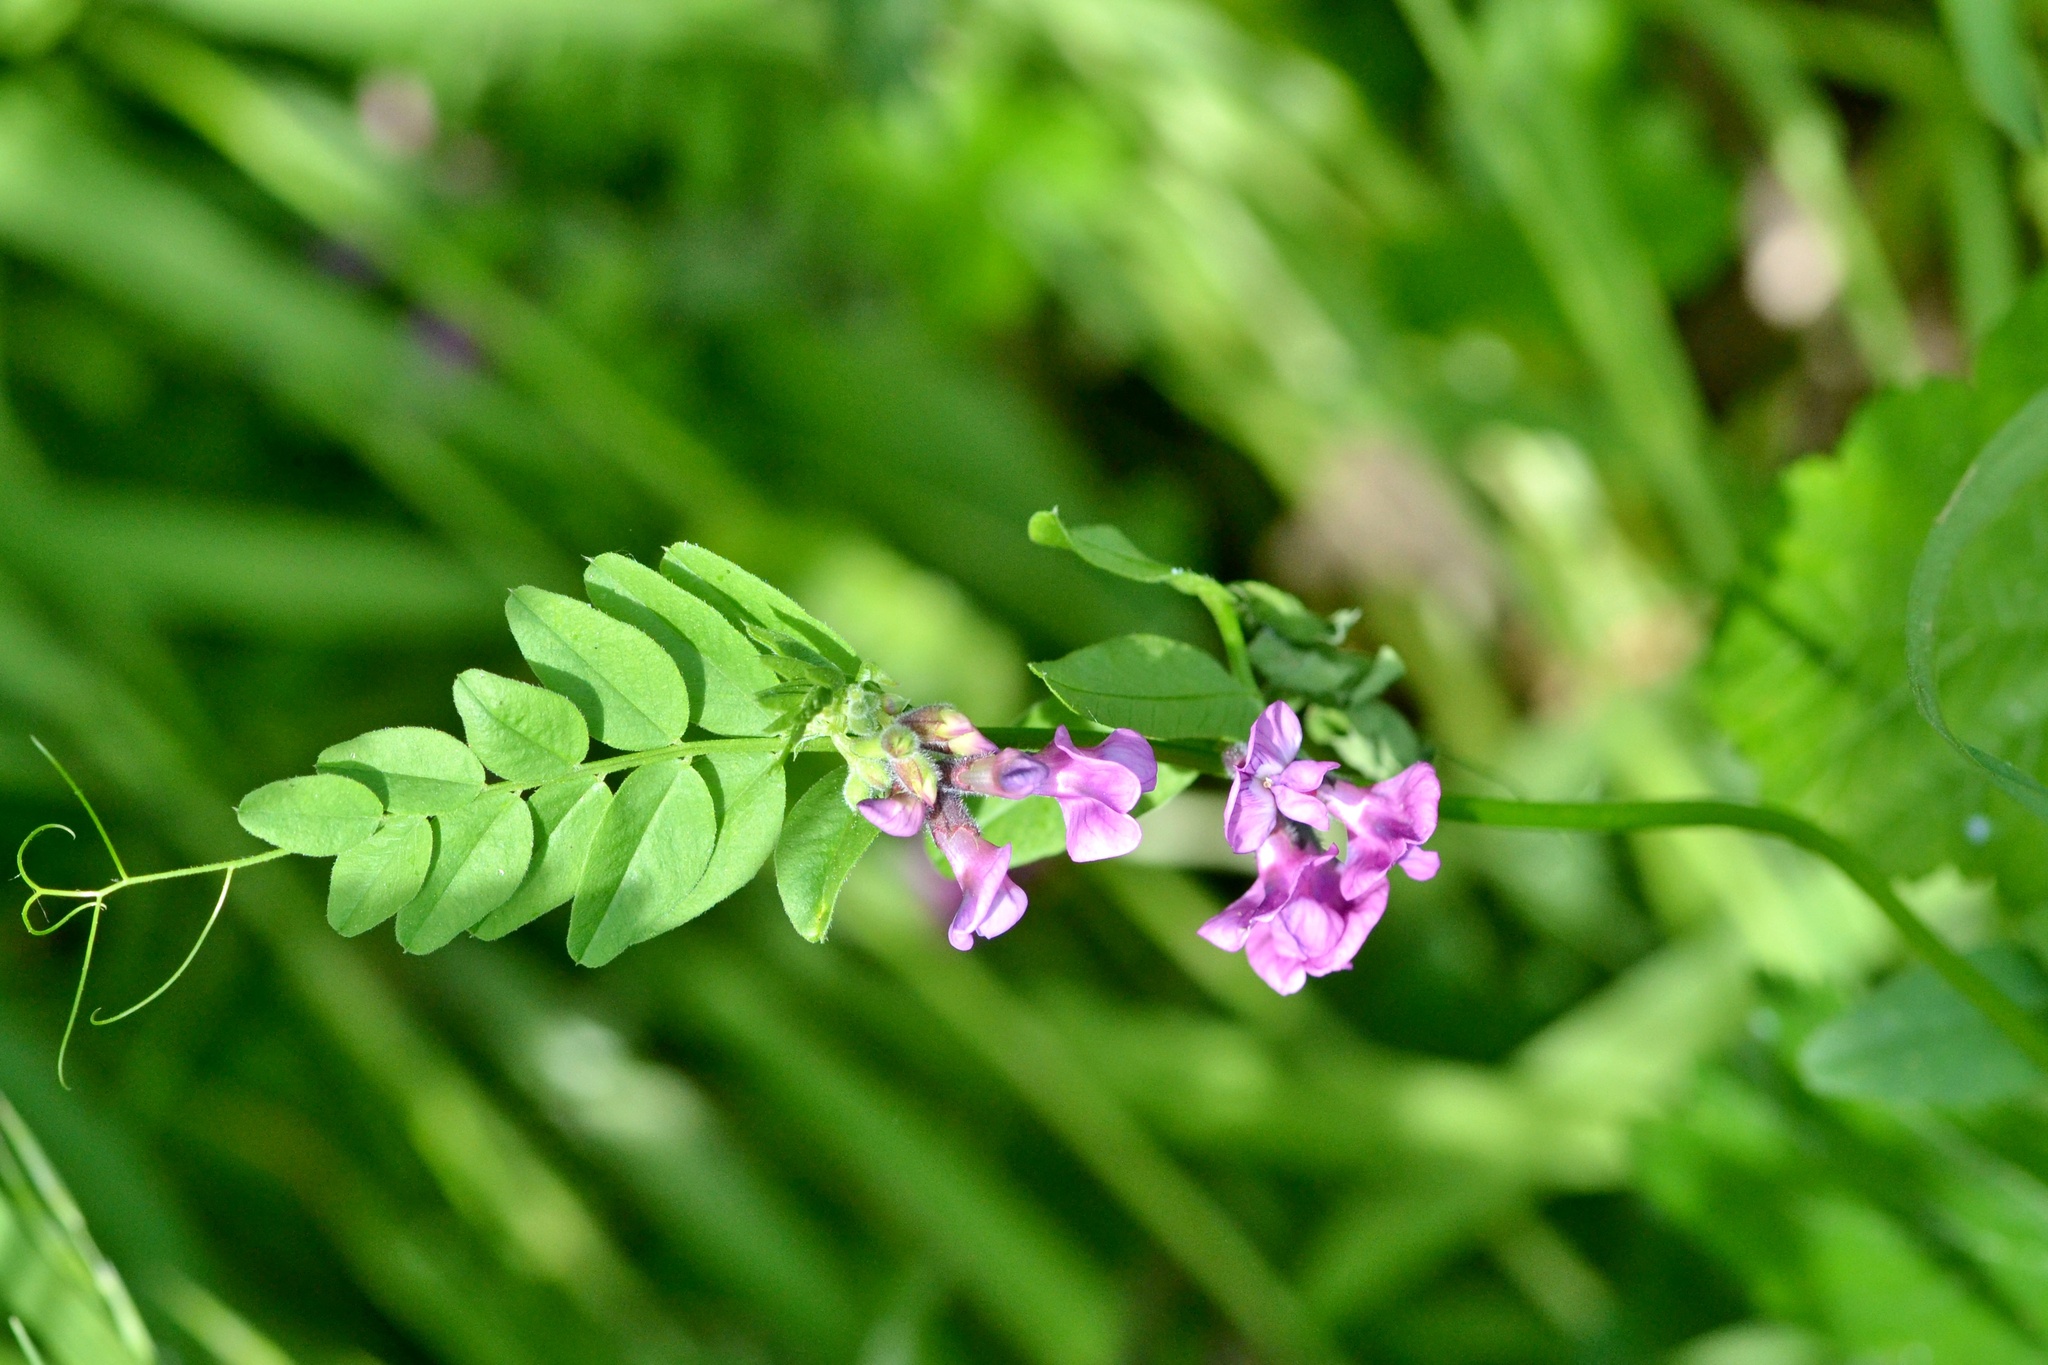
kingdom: Plantae
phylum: Tracheophyta
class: Magnoliopsida
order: Fabales
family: Fabaceae
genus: Vicia
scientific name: Vicia sepium
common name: Bush vetch
